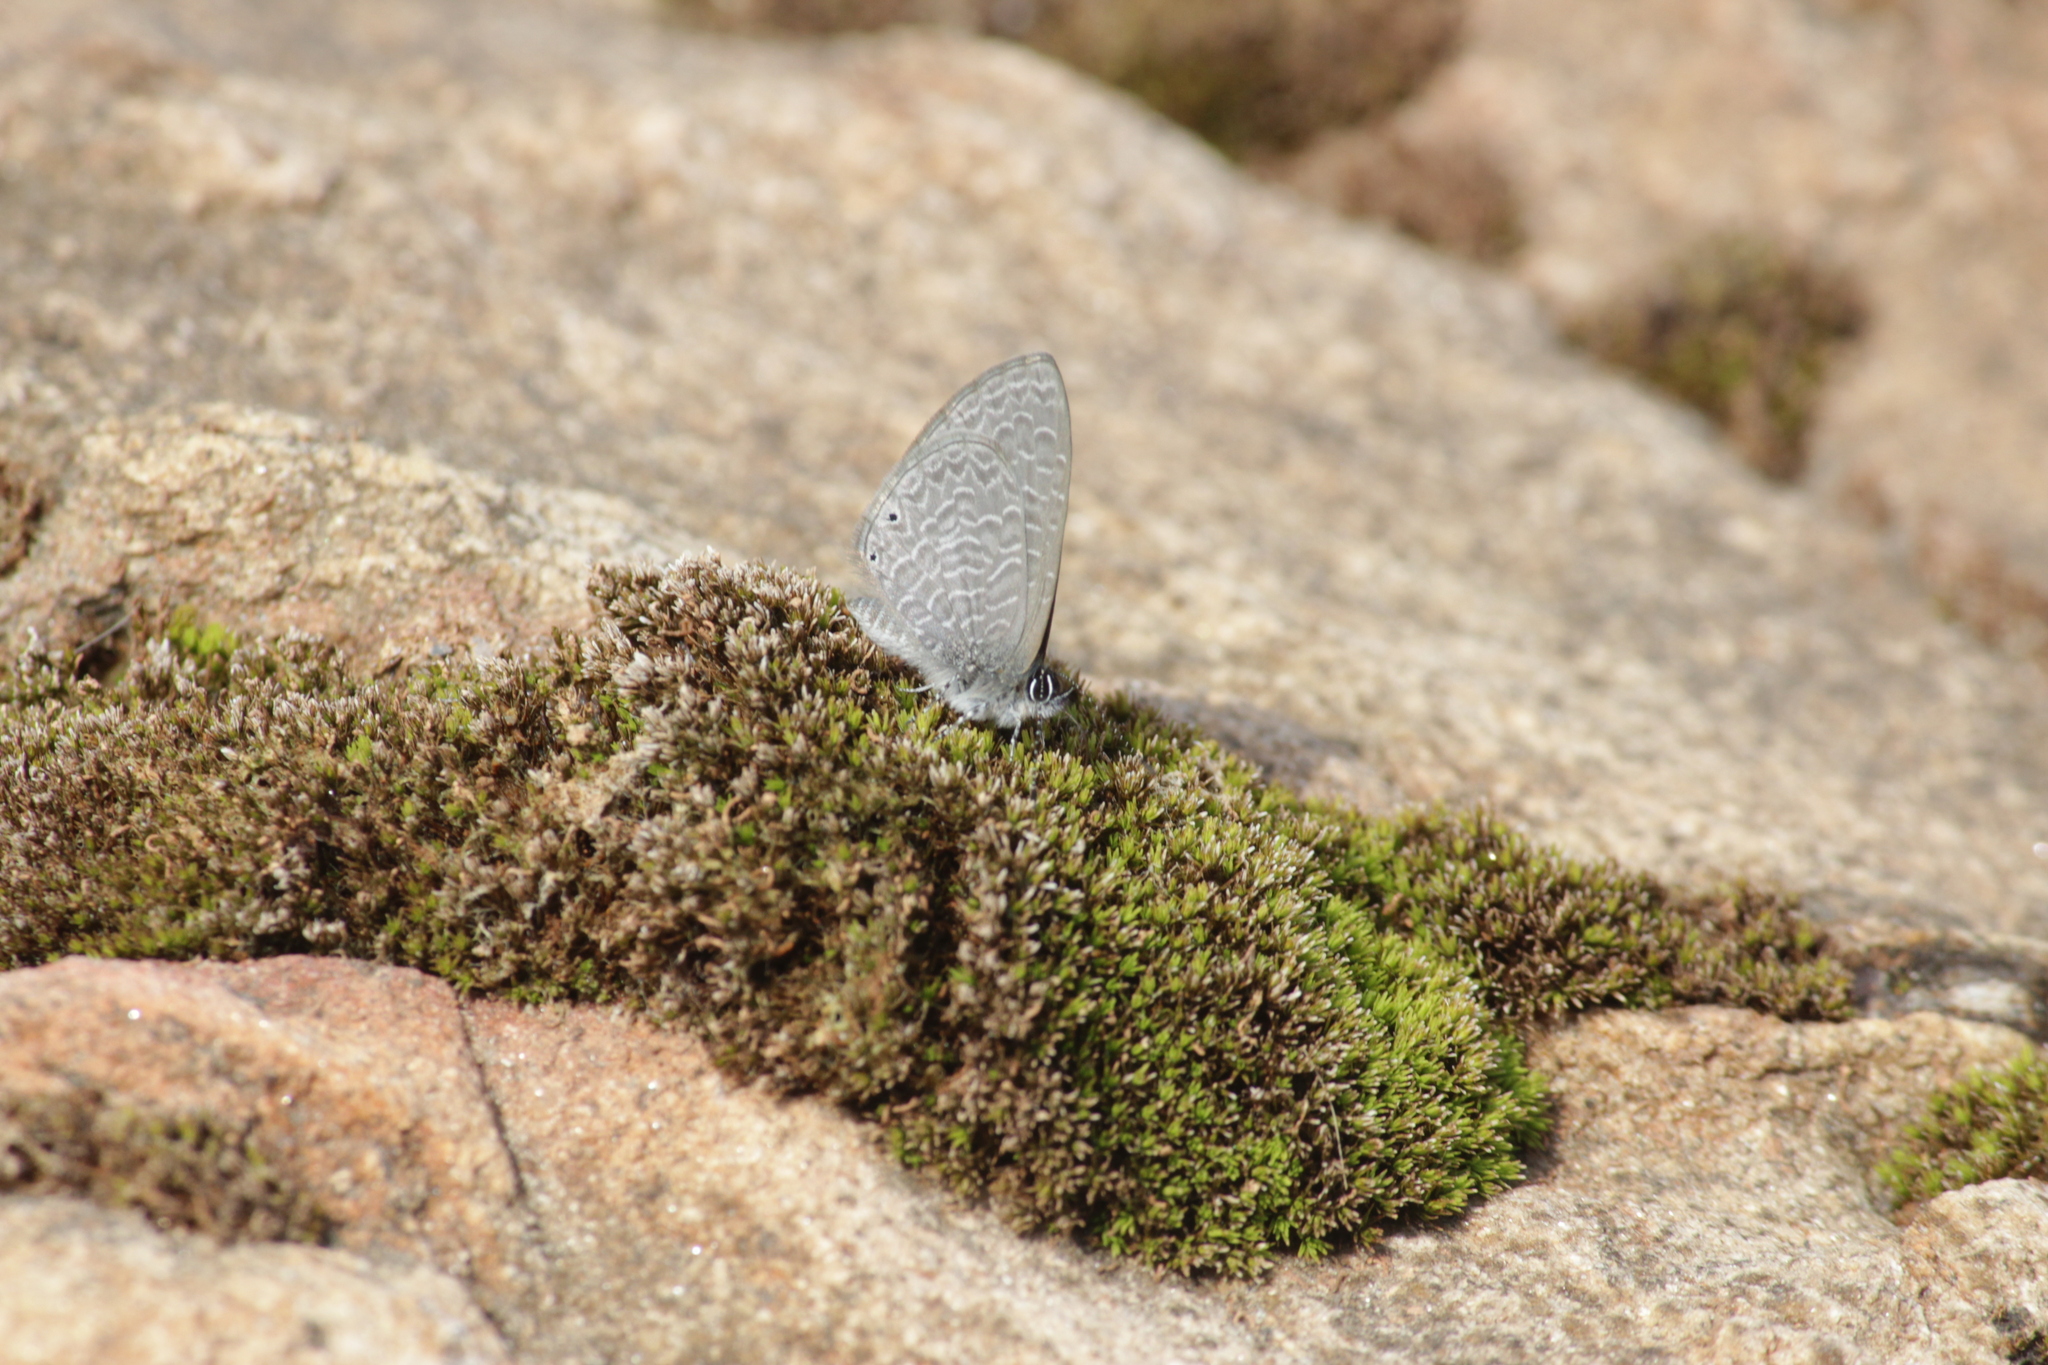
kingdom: Animalia
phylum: Arthropoda
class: Insecta
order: Lepidoptera
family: Lycaenidae
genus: Pseudonacaduba
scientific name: Pseudonacaduba sichela
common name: African line blue
